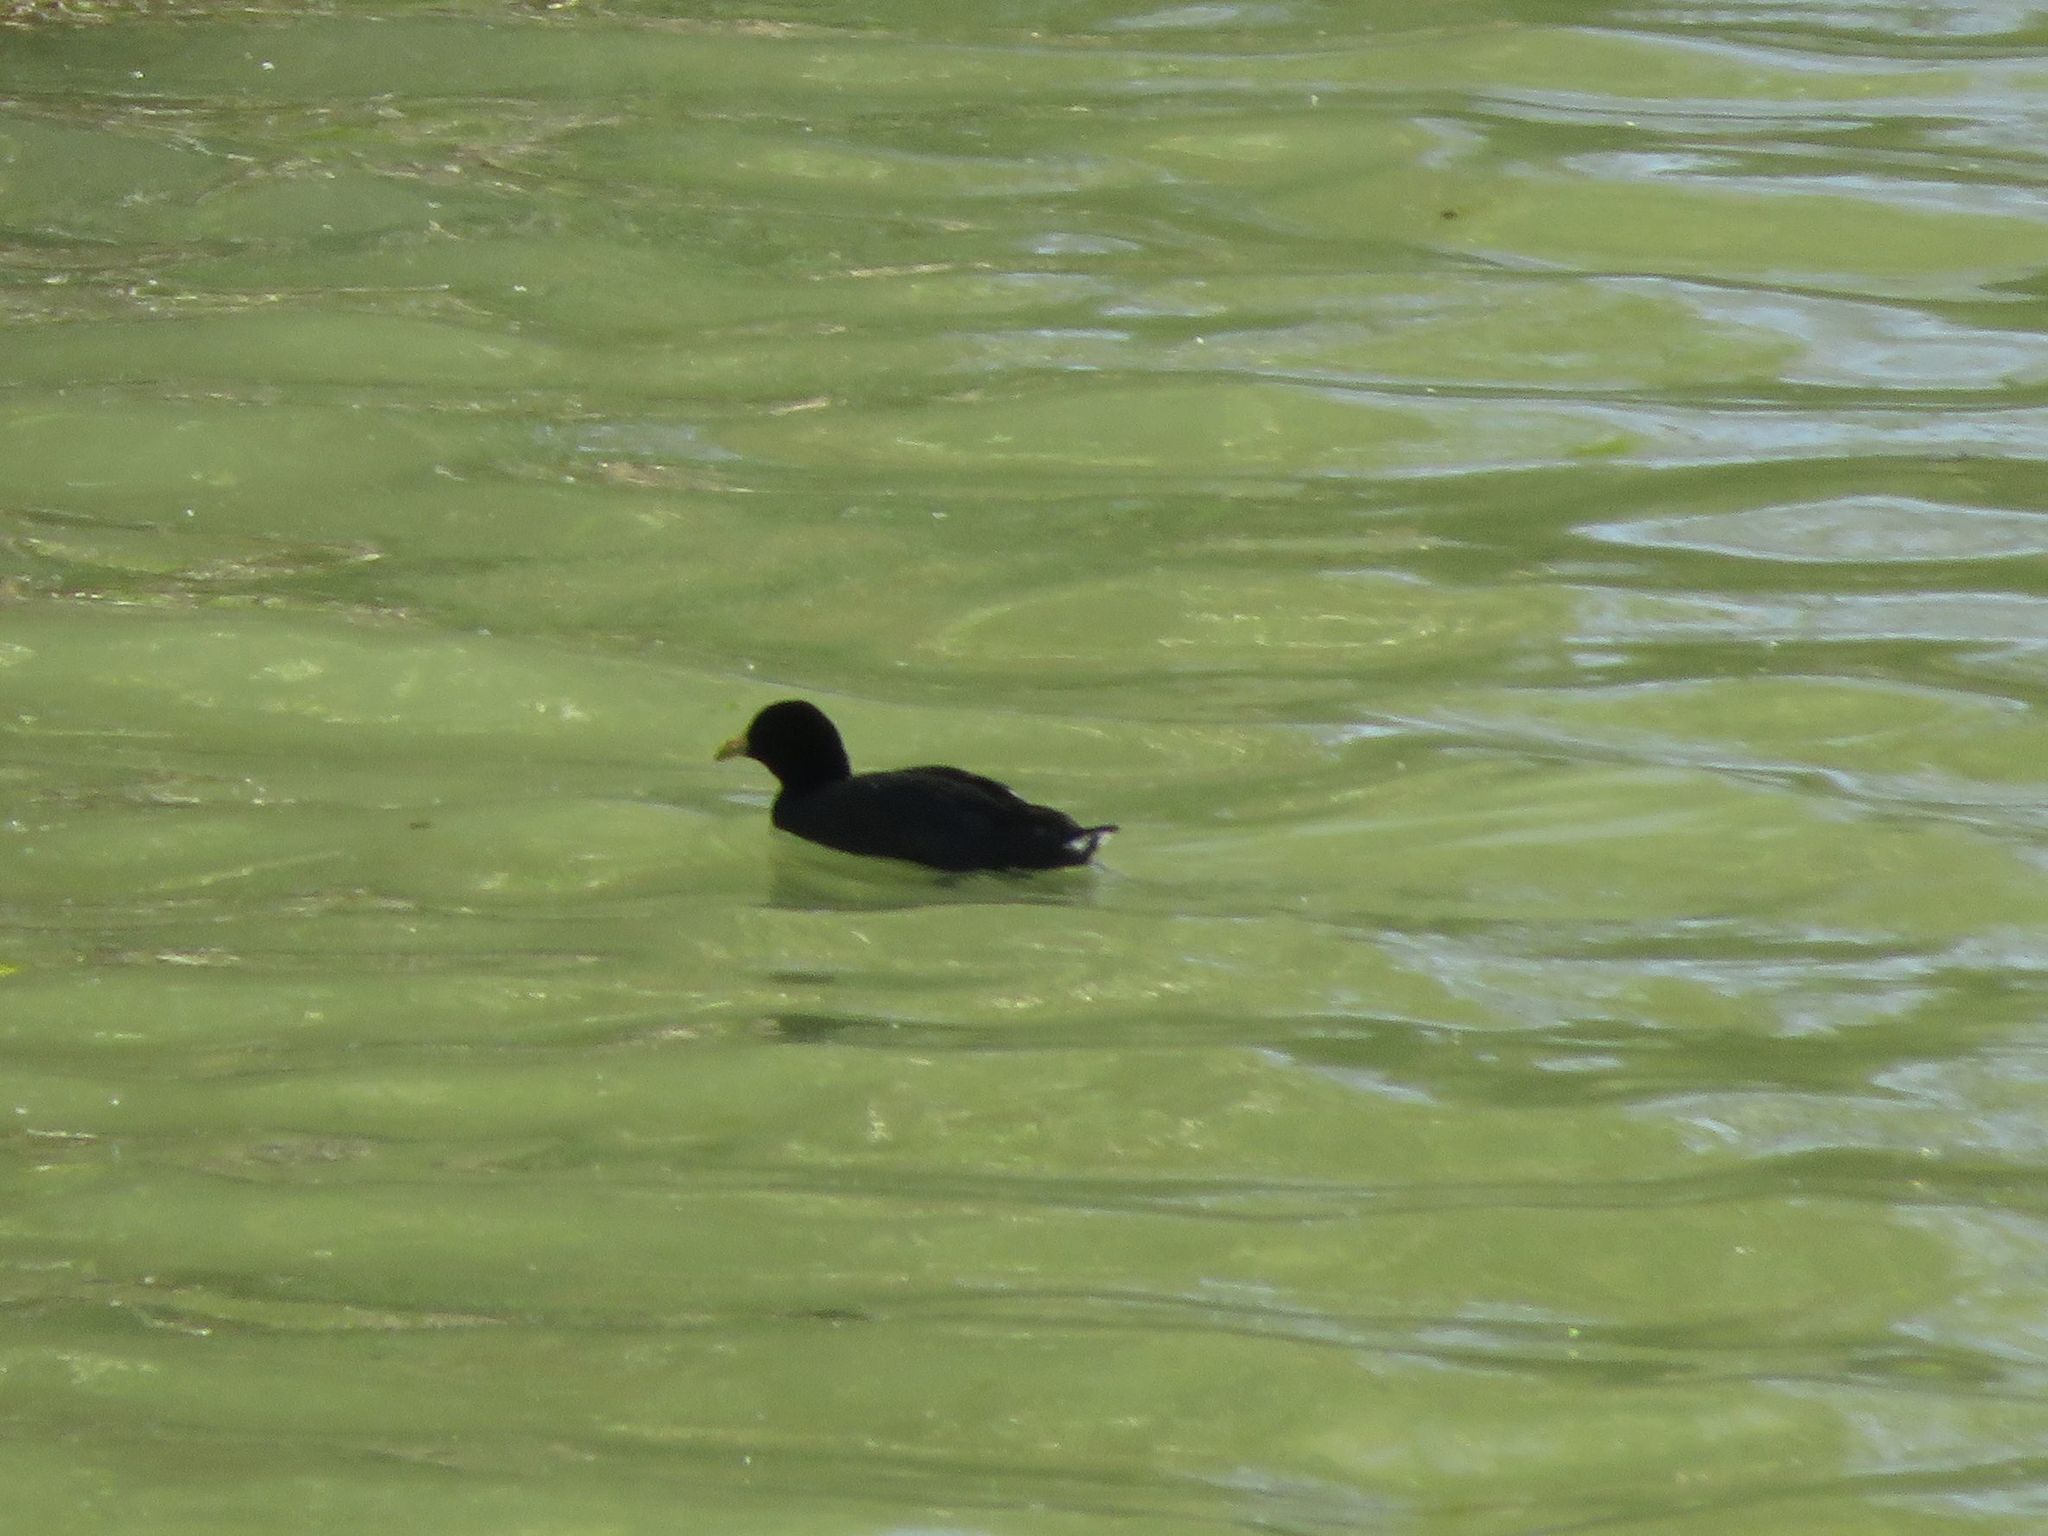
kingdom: Animalia
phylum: Chordata
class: Aves
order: Gruiformes
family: Rallidae
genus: Fulica
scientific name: Fulica leucoptera
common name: White-winged coot
